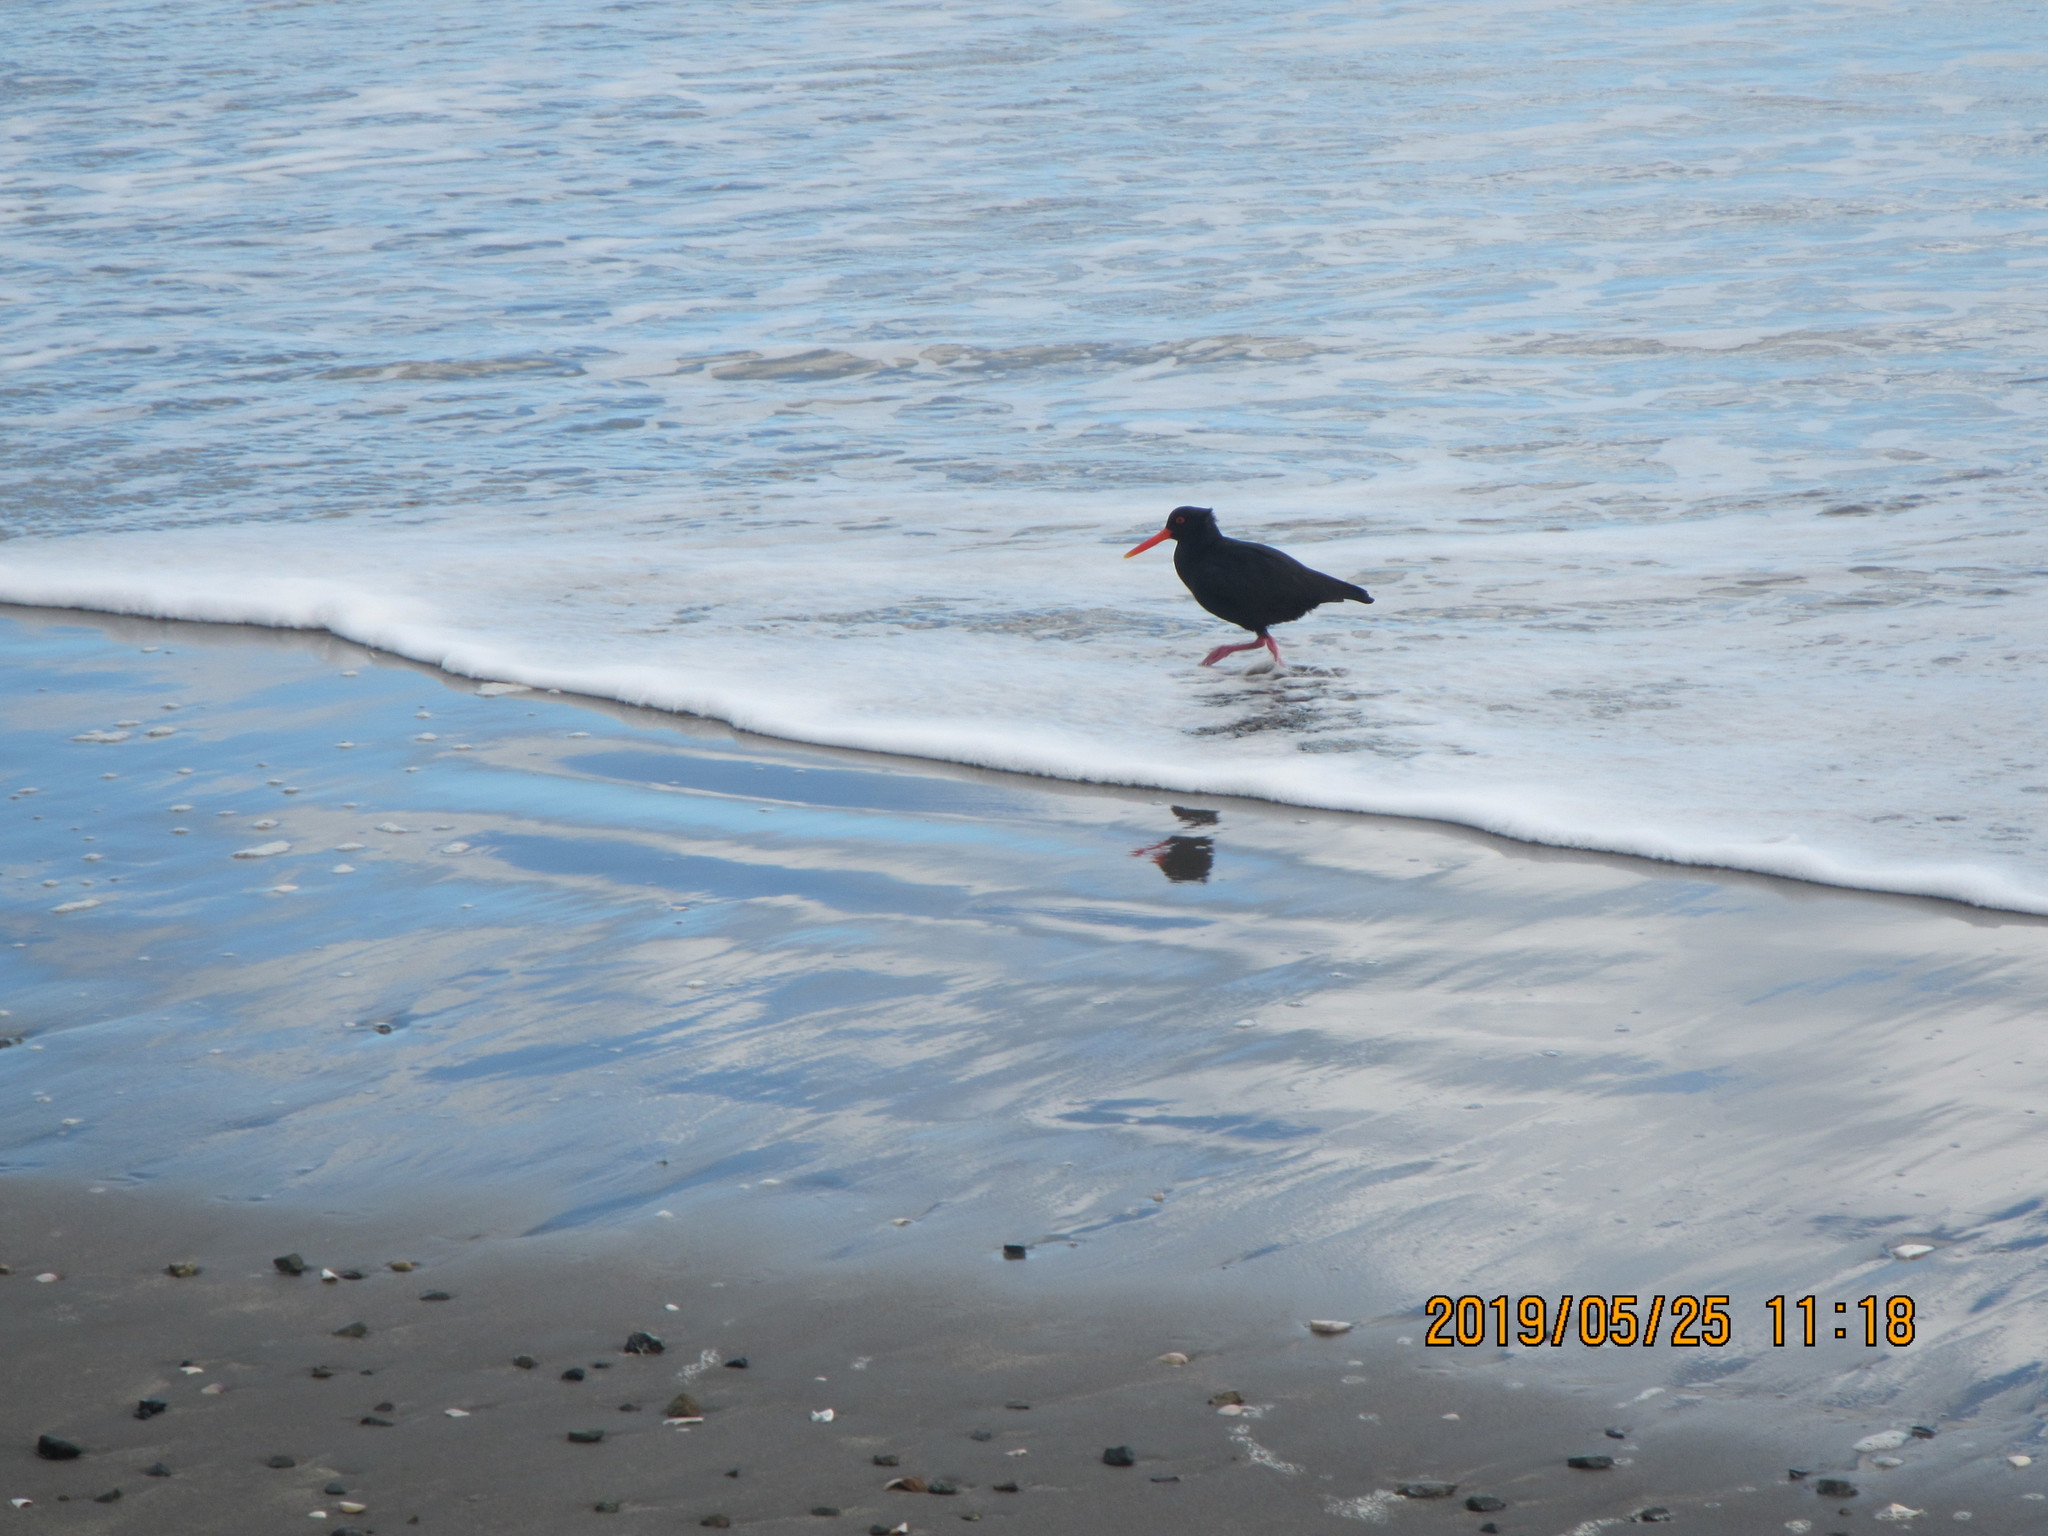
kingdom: Animalia
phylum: Chordata
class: Aves
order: Charadriiformes
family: Haematopodidae
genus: Haematopus
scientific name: Haematopus unicolor
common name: Variable oystercatcher
